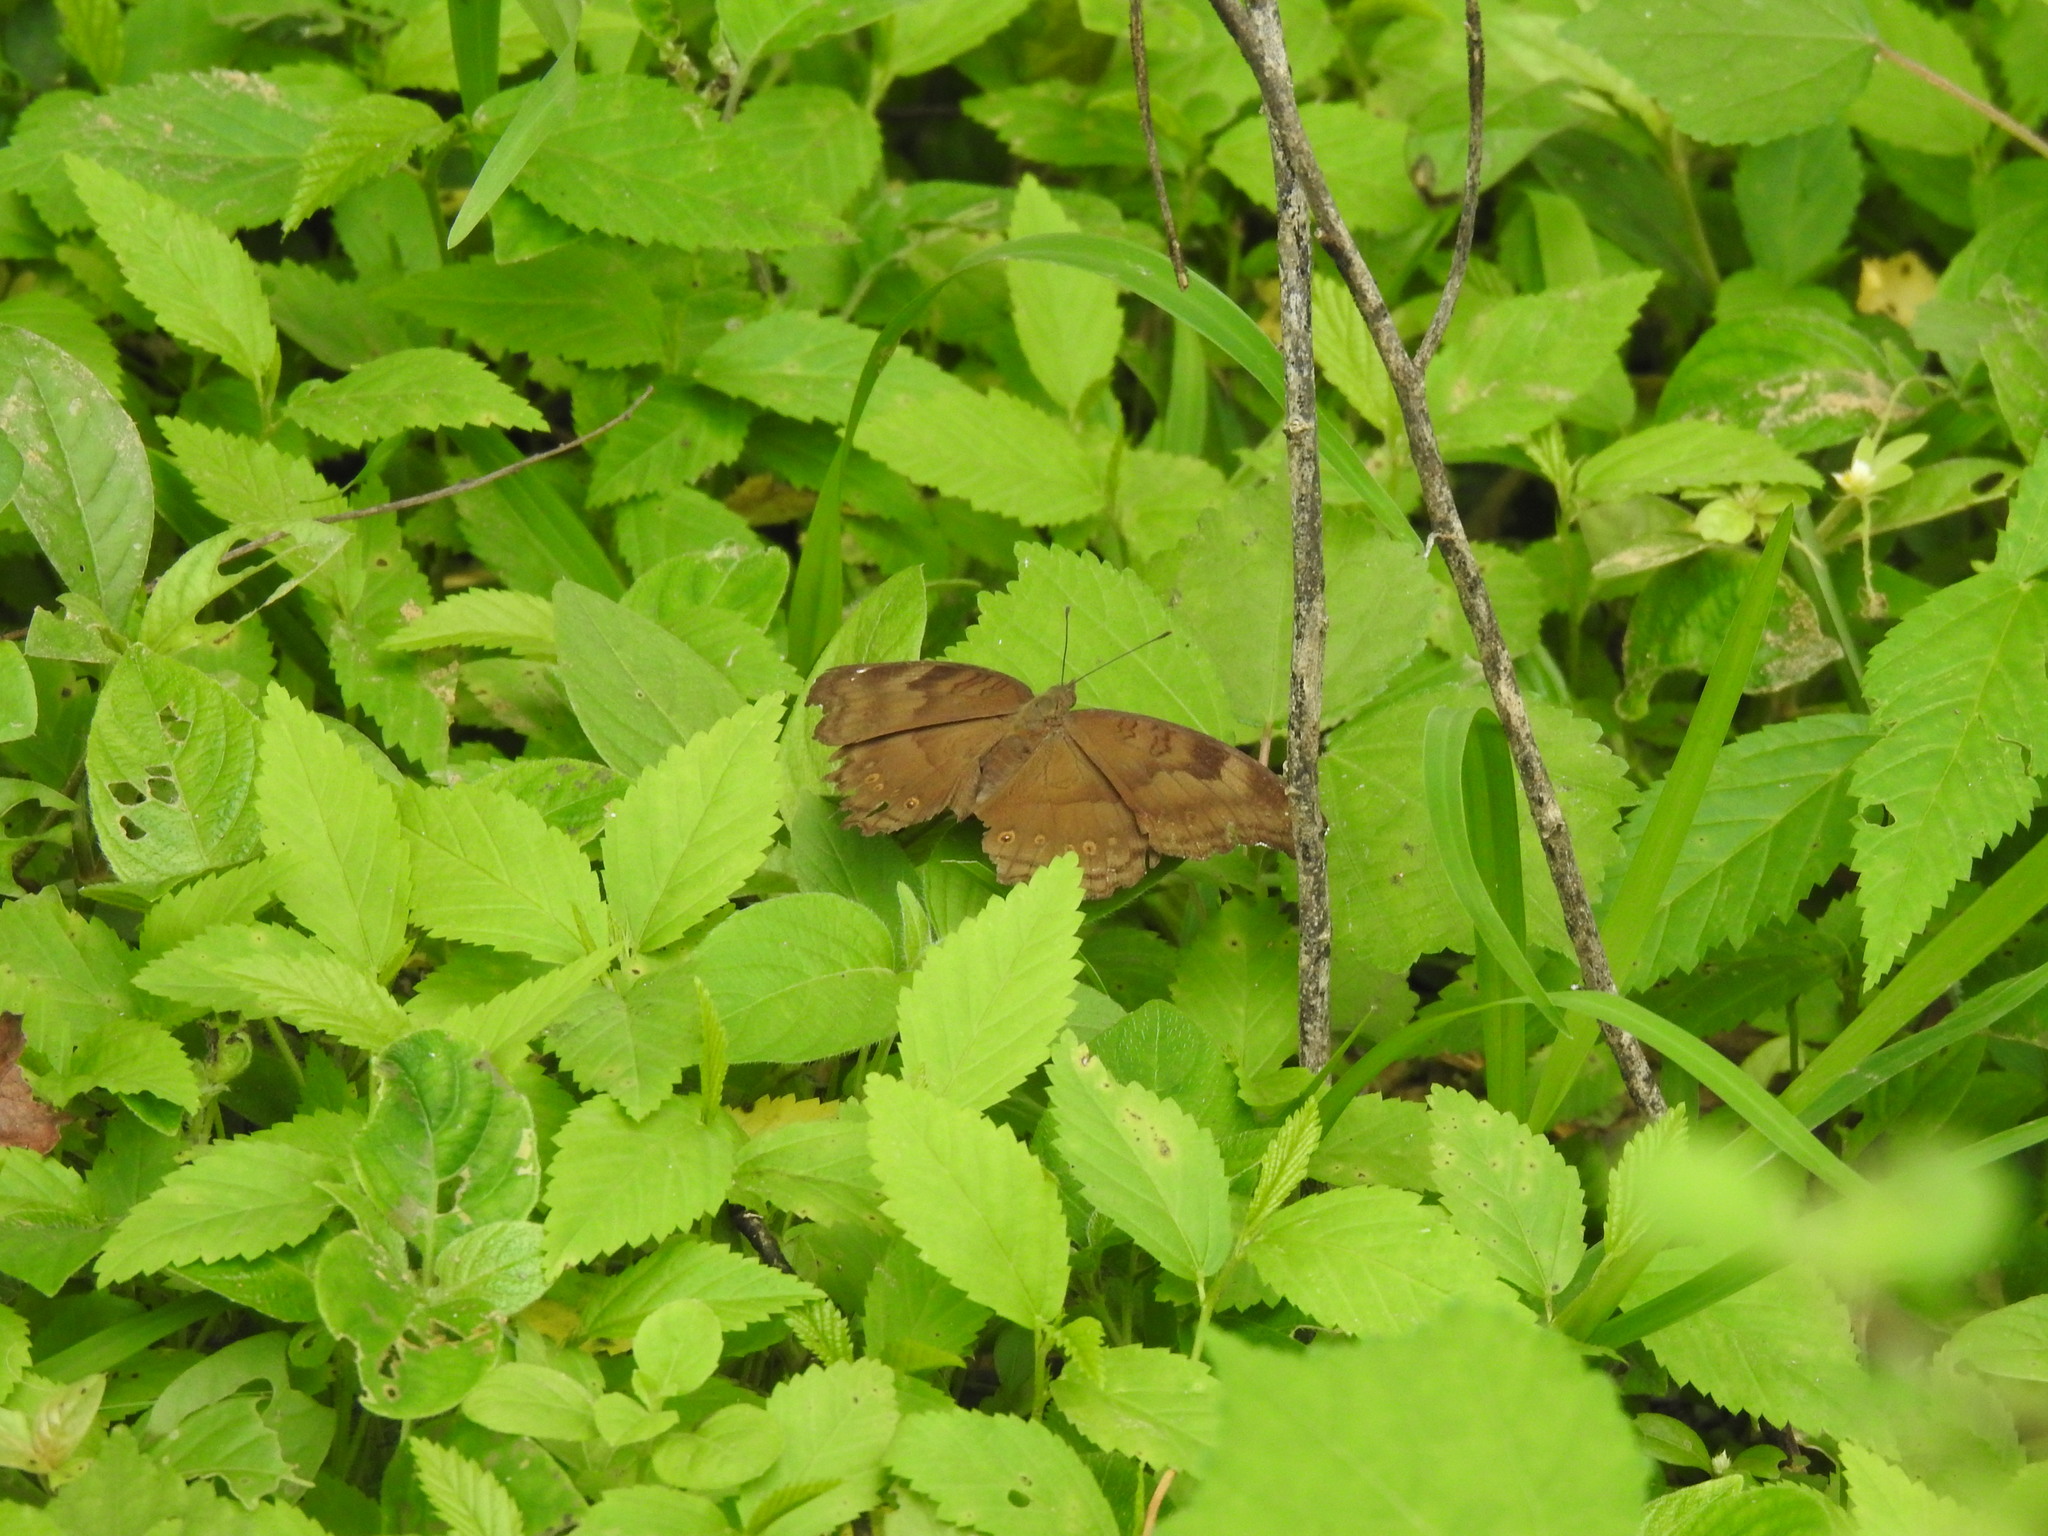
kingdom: Animalia
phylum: Arthropoda
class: Insecta
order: Lepidoptera
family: Nymphalidae
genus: Junonia
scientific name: Junonia iphita
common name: Chocolate pansy
